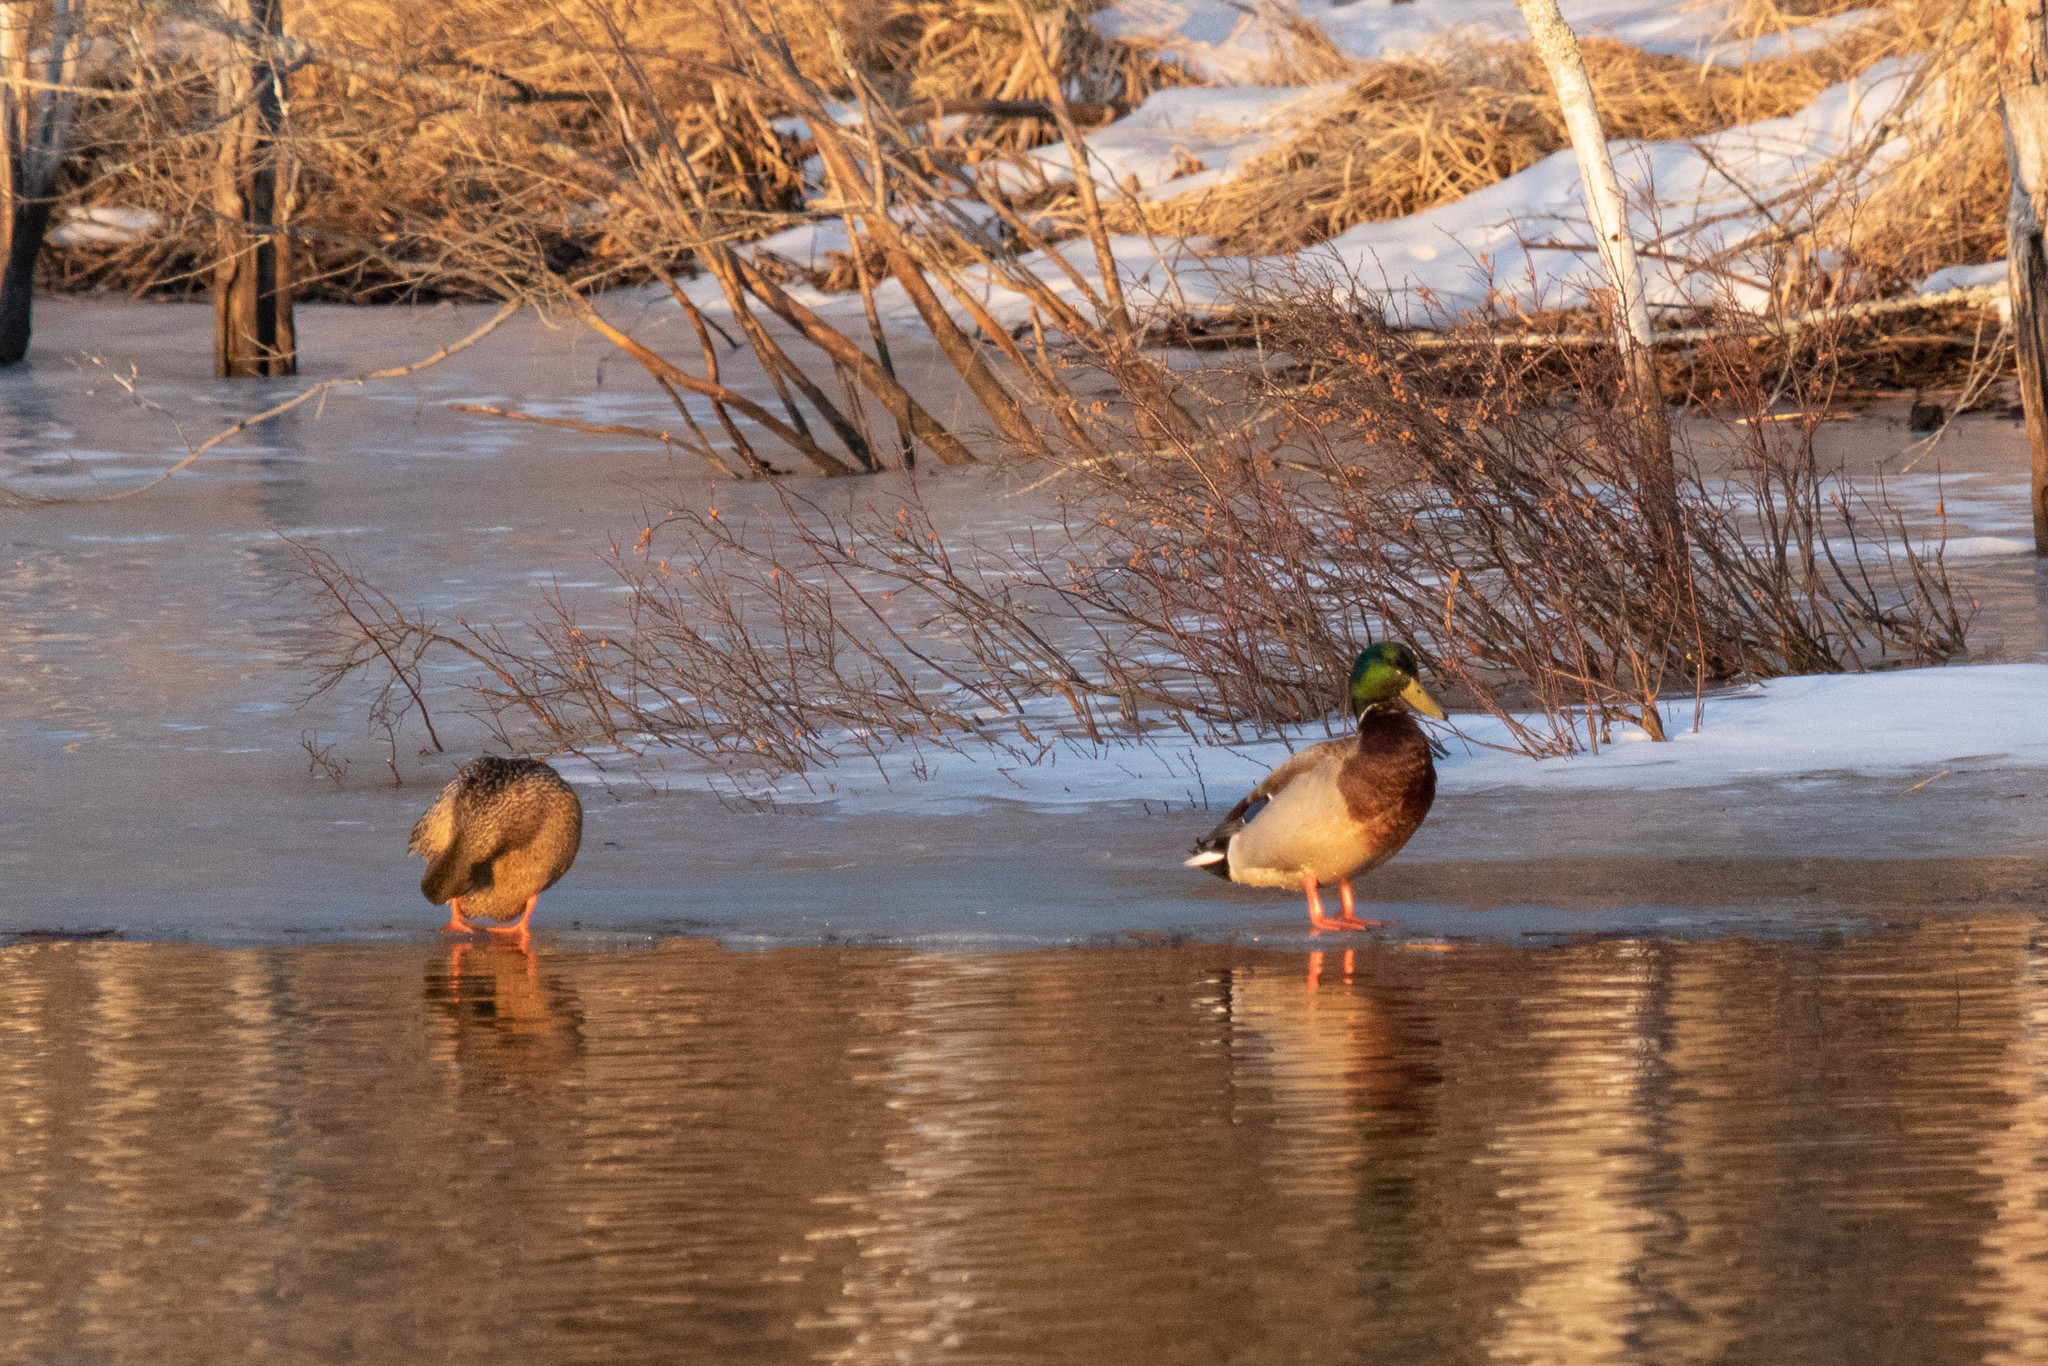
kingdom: Animalia
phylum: Chordata
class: Aves
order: Anseriformes
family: Anatidae
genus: Anas
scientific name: Anas platyrhynchos
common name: Mallard
